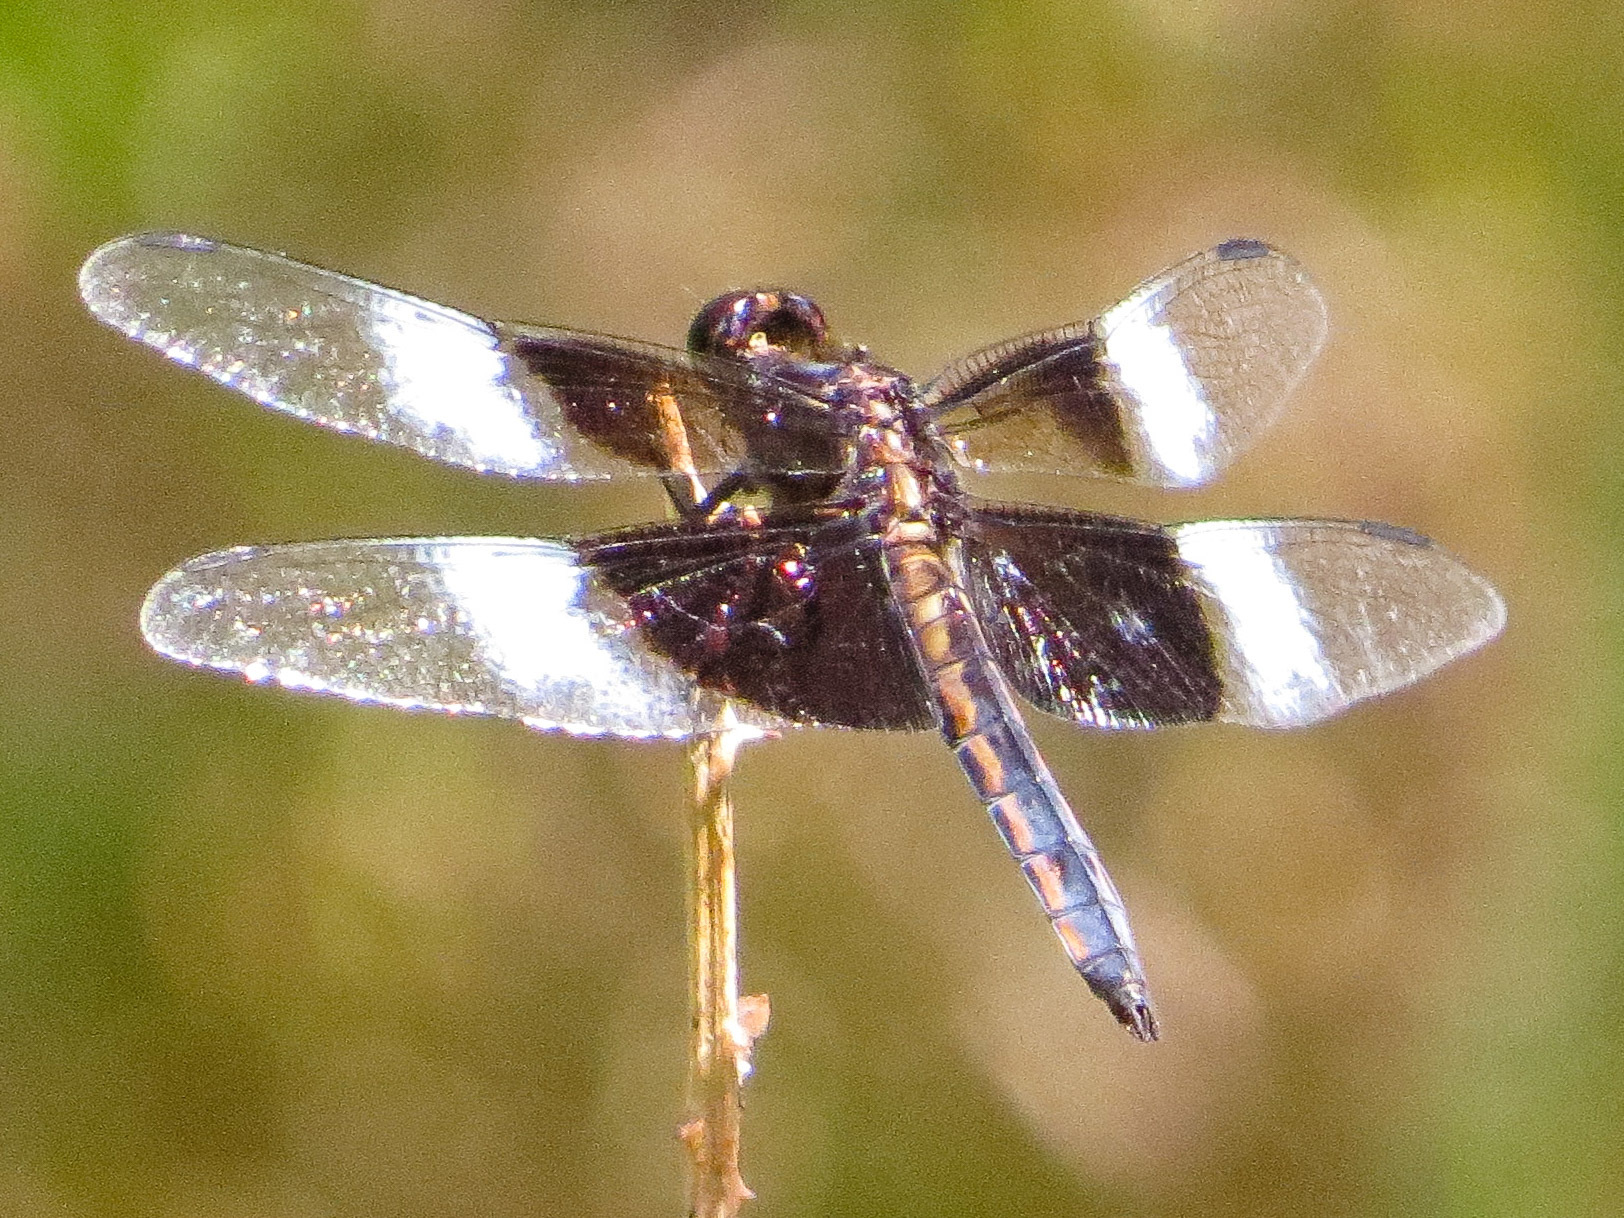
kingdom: Animalia
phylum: Arthropoda
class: Insecta
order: Odonata
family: Libellulidae
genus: Libellula
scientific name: Libellula luctuosa
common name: Widow skimmer
